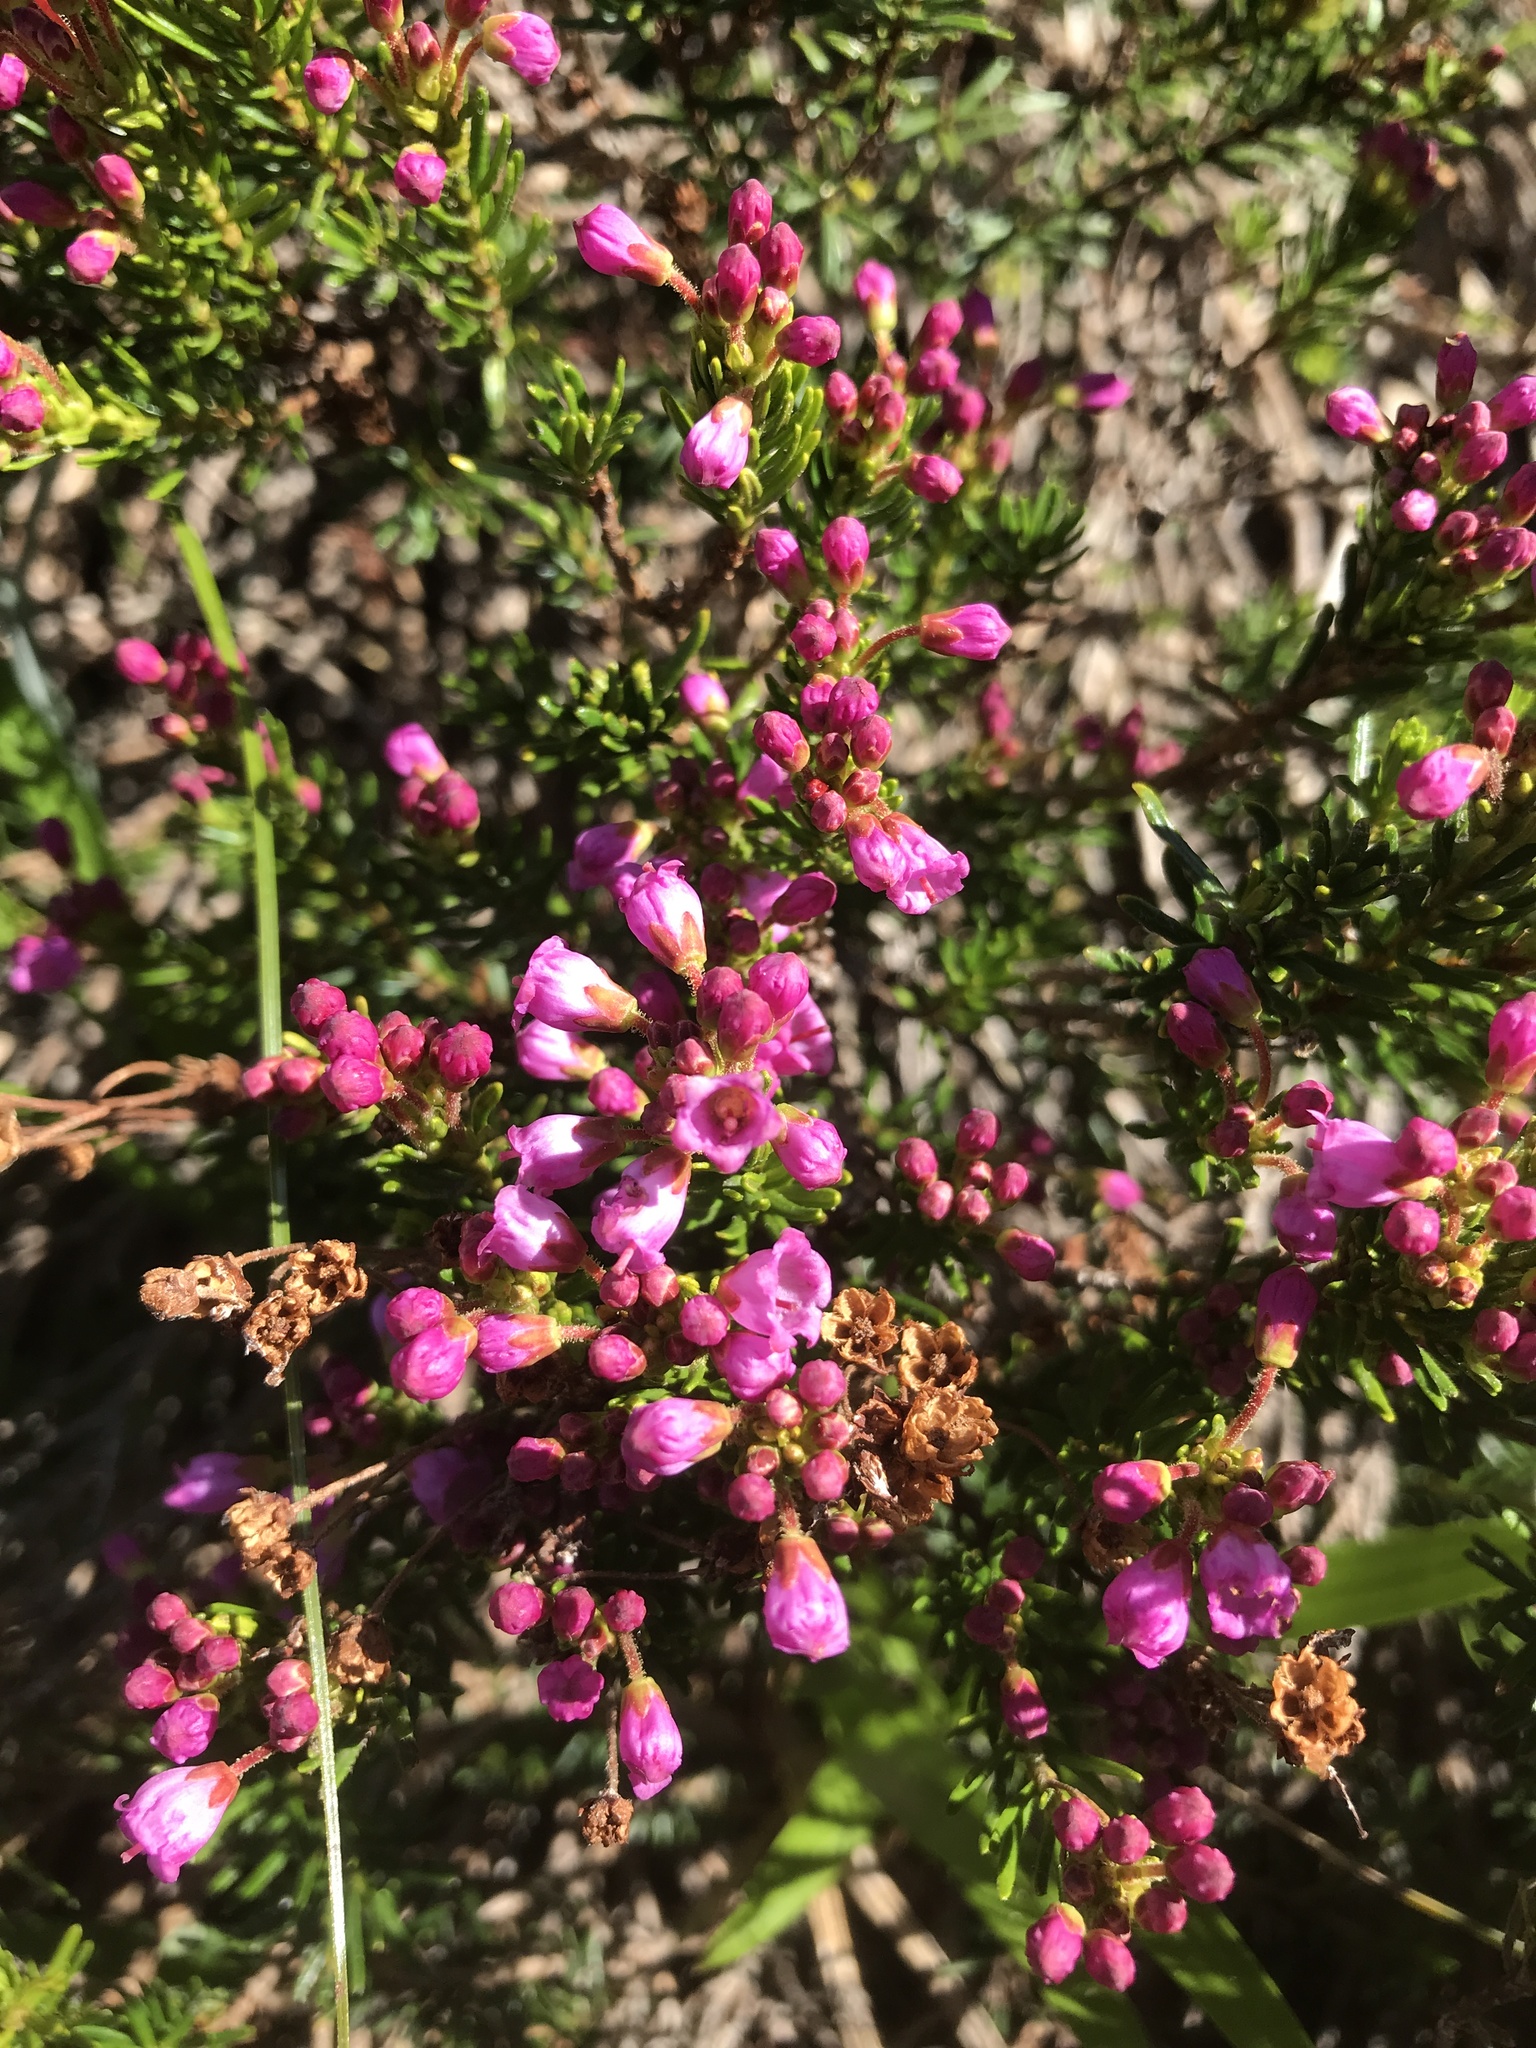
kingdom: Plantae
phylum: Tracheophyta
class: Magnoliopsida
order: Ericales
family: Ericaceae
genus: Phyllodoce
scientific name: Phyllodoce empetriformis
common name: Pink mountain heather
